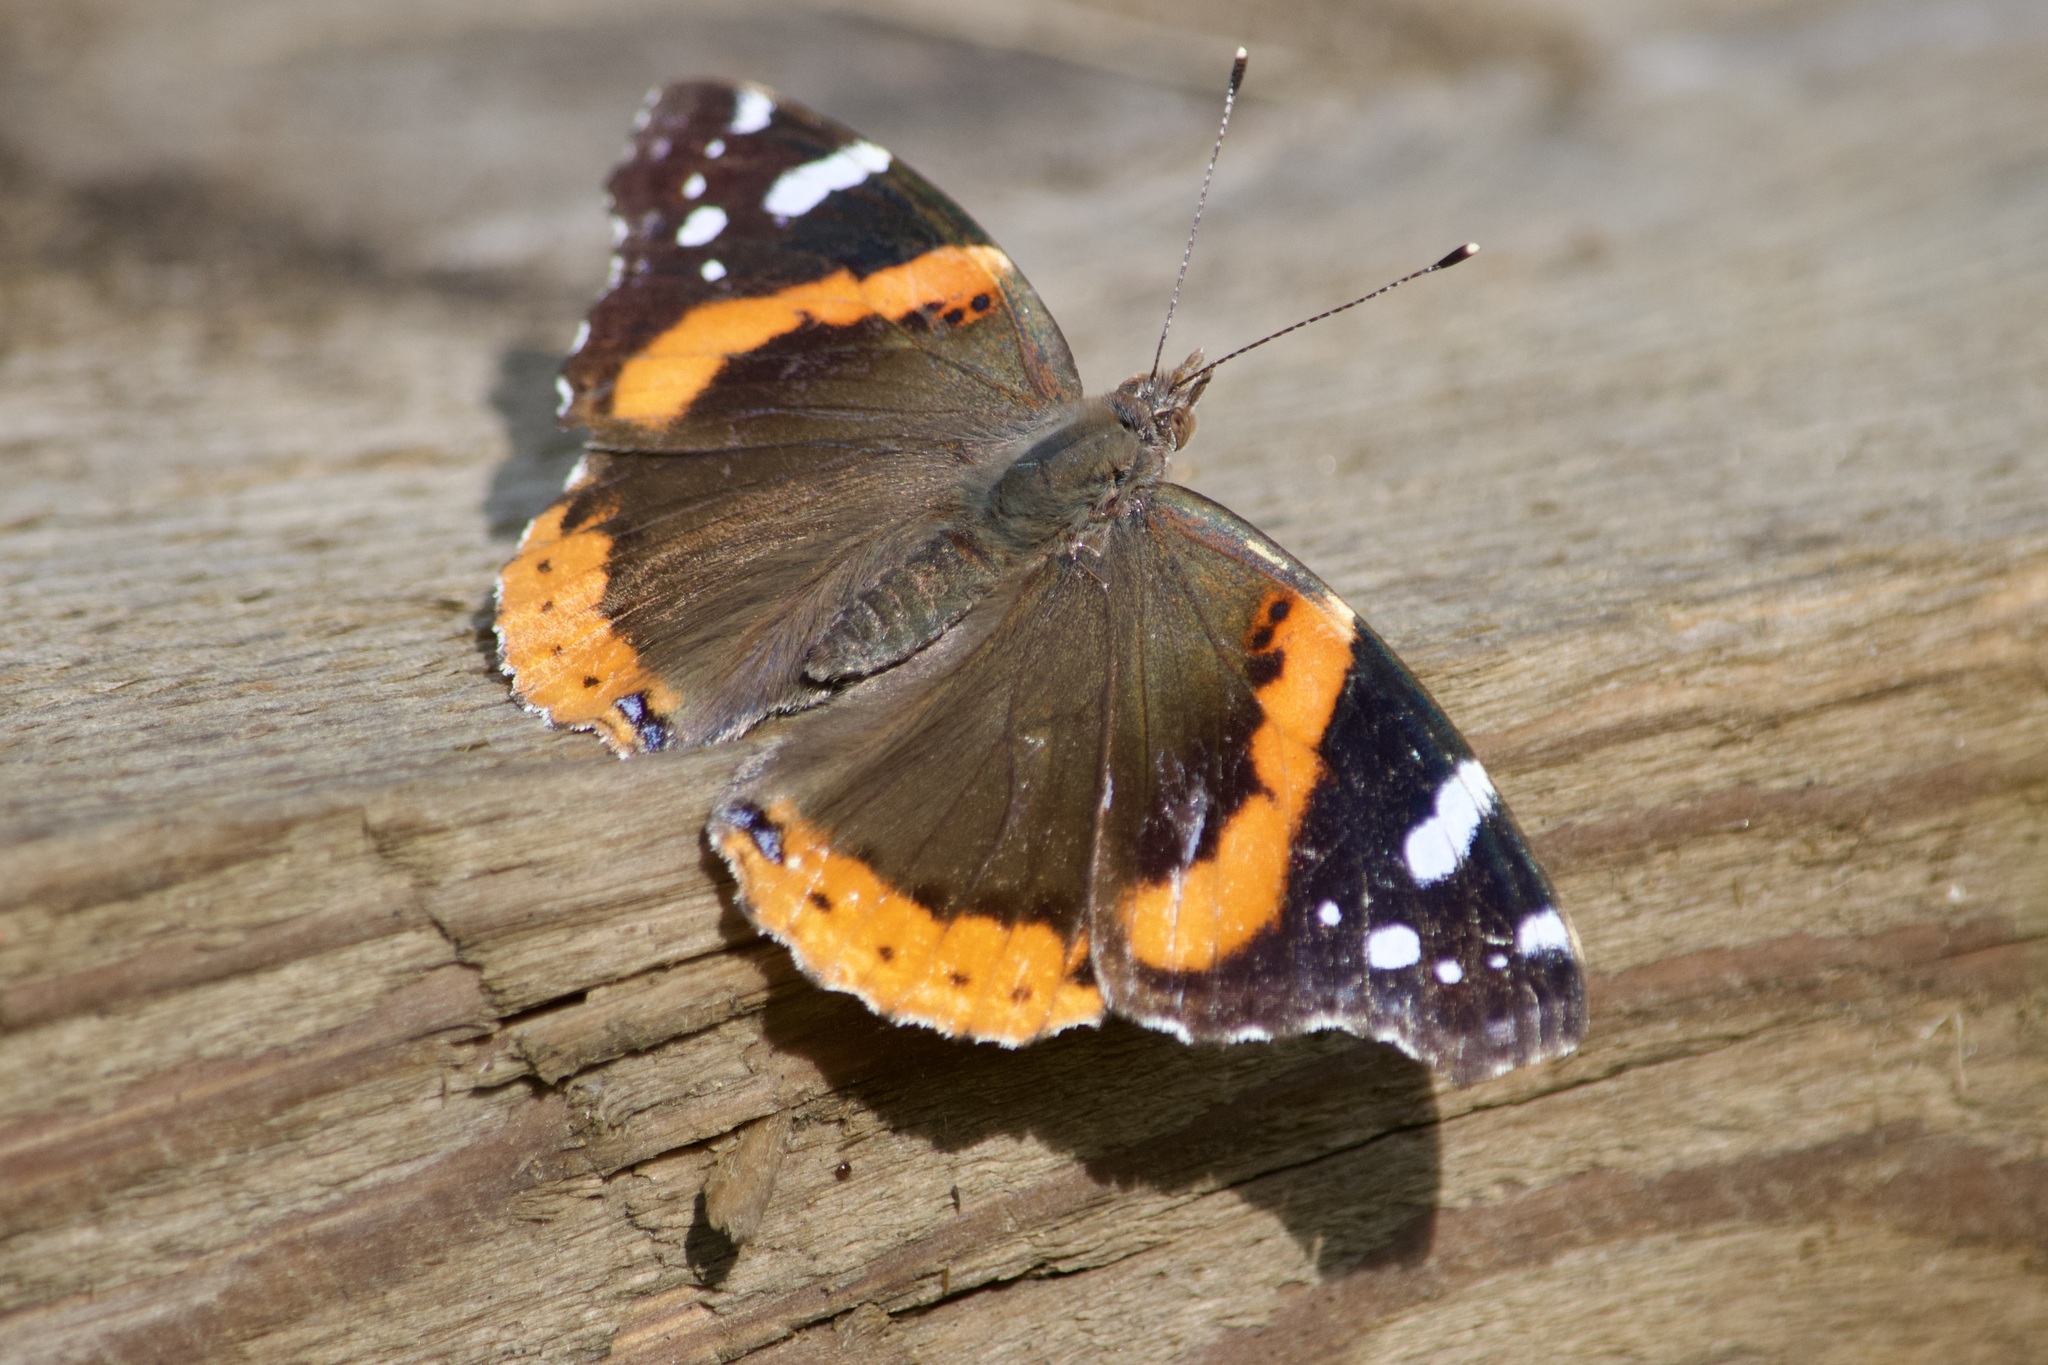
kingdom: Animalia
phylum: Arthropoda
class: Insecta
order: Lepidoptera
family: Nymphalidae
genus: Vanessa
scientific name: Vanessa atalanta
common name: Red admiral
